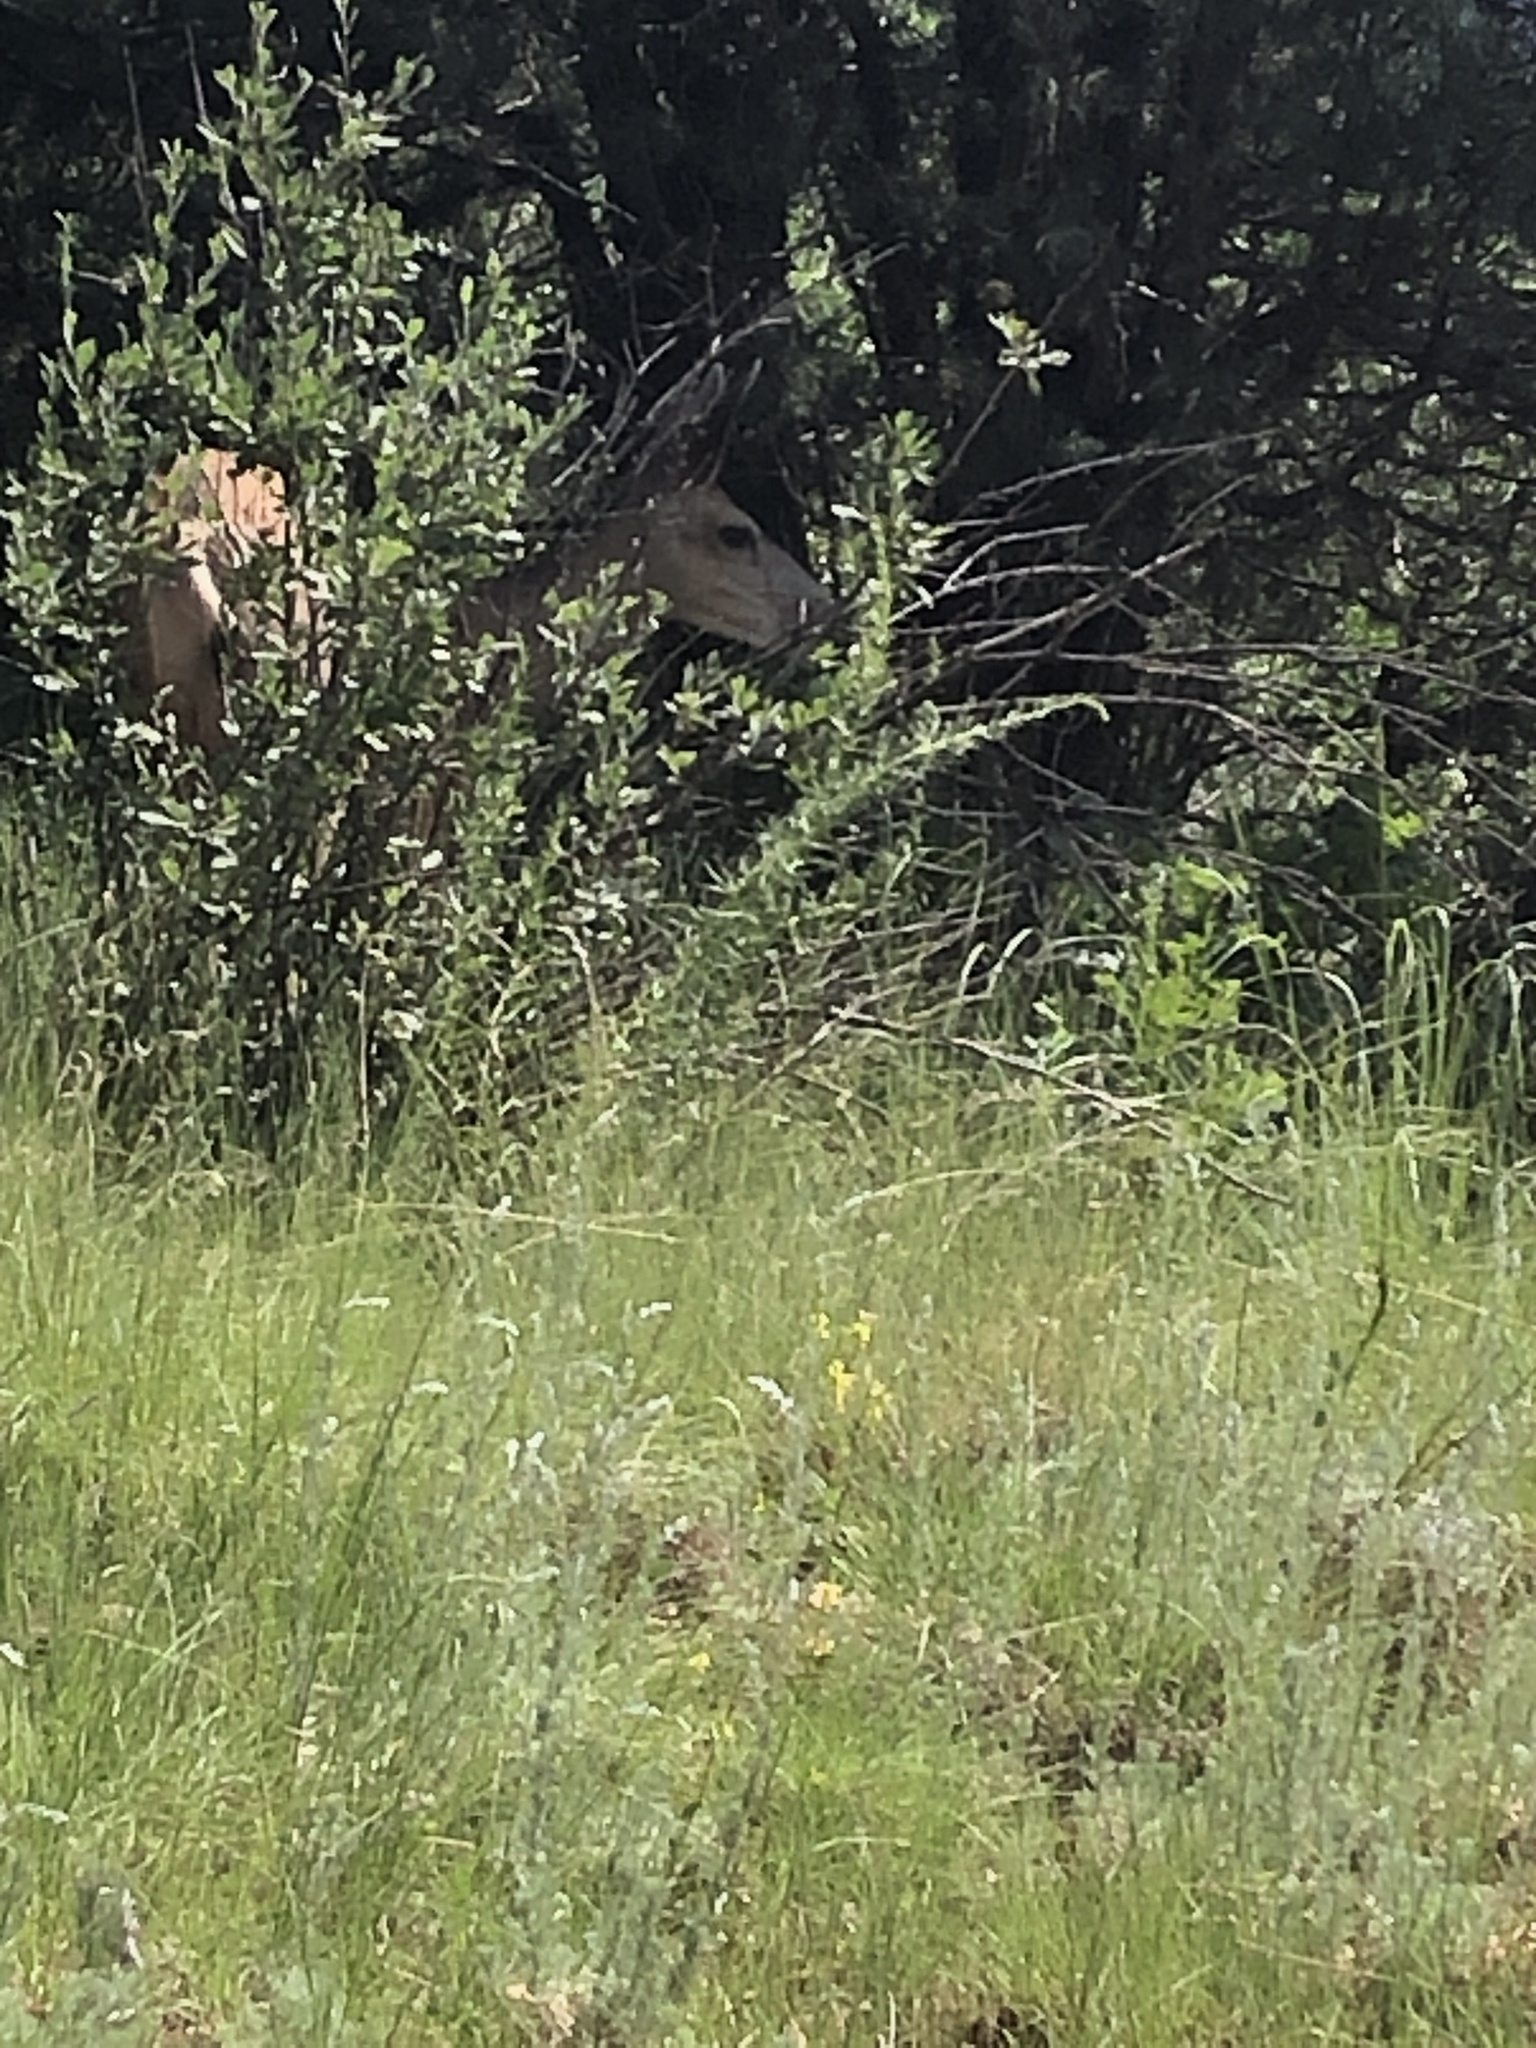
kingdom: Animalia
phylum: Chordata
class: Mammalia
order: Artiodactyla
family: Cervidae
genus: Odocoileus
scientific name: Odocoileus hemionus
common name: Mule deer
